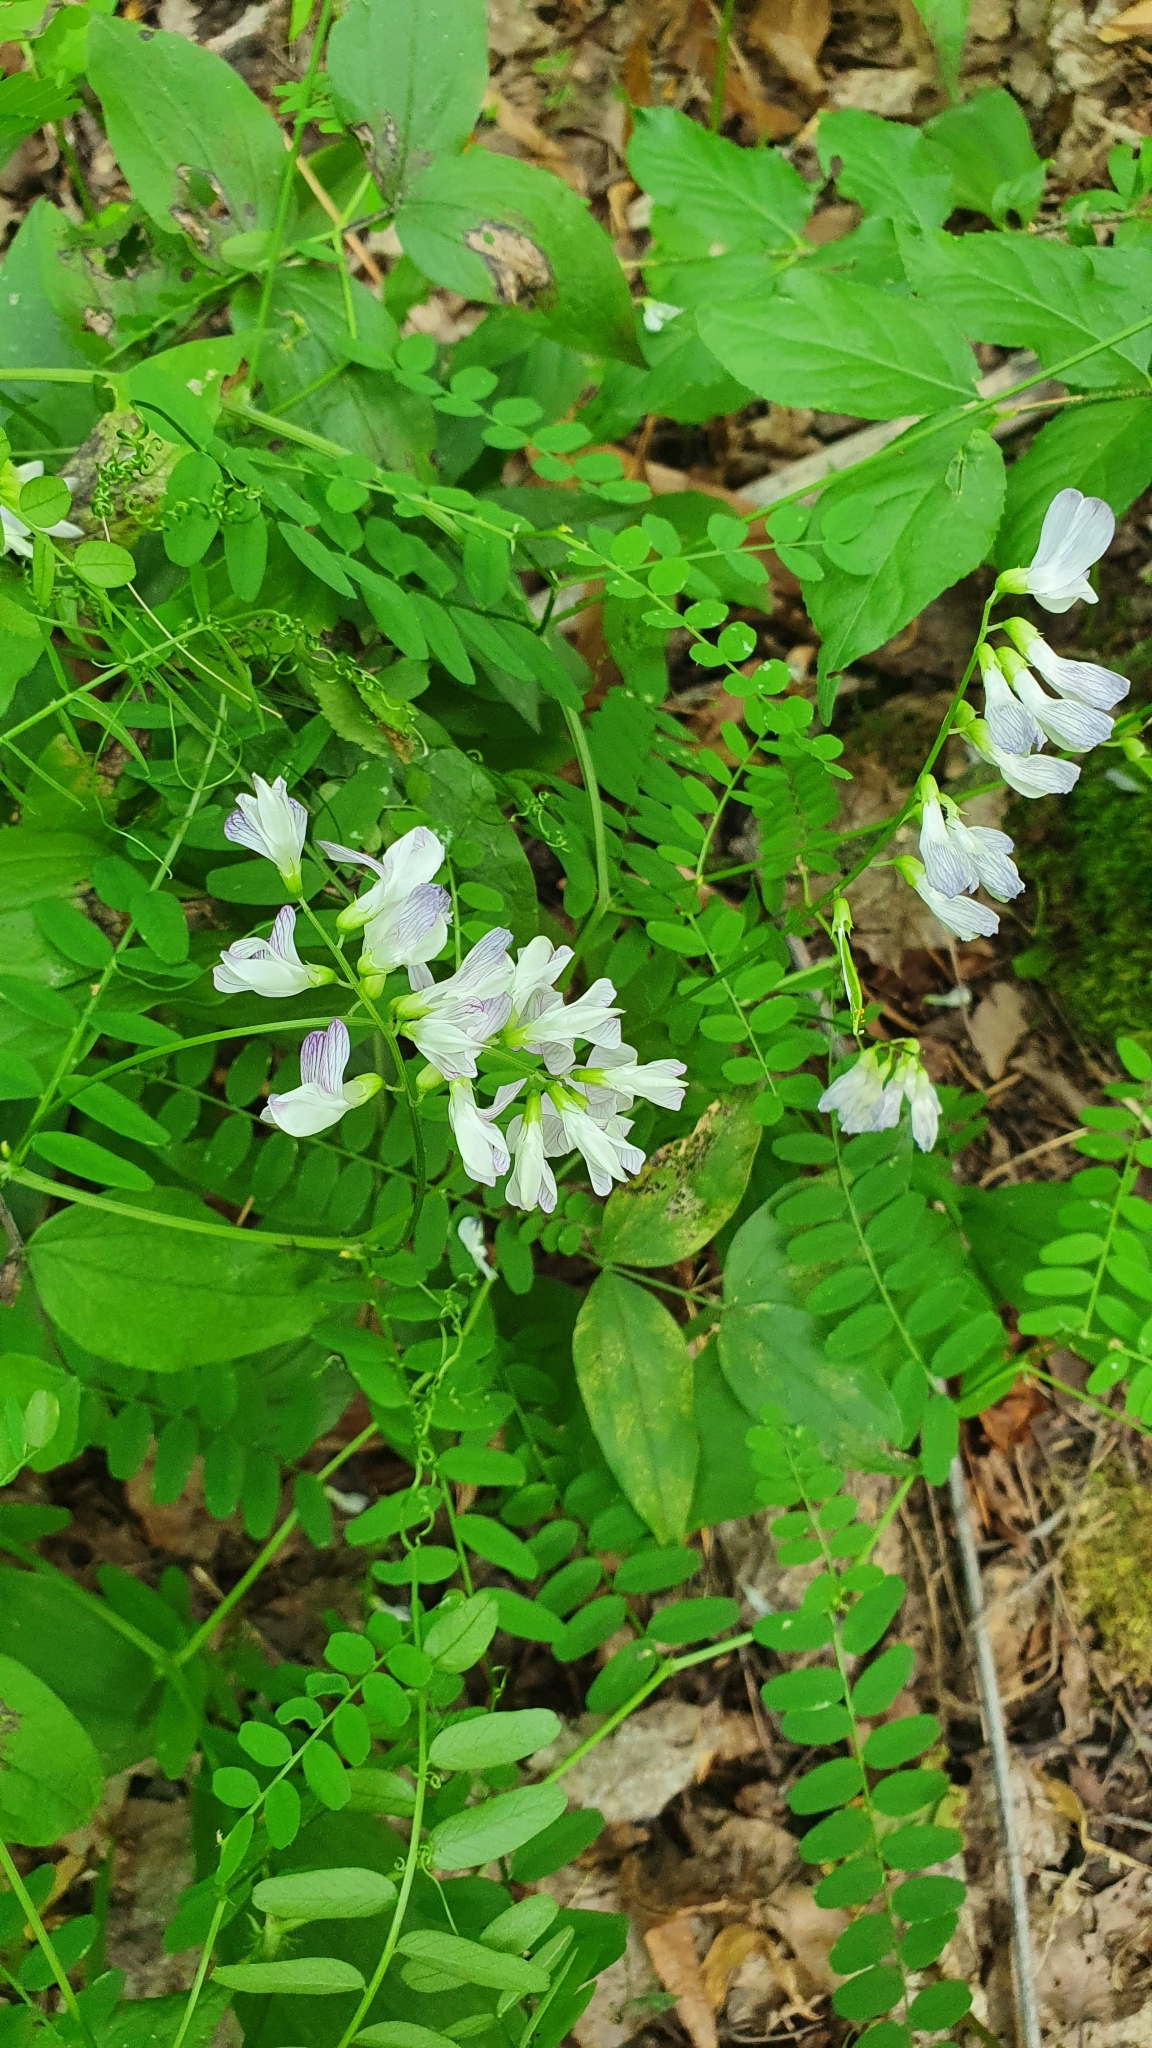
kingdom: Plantae
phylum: Tracheophyta
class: Magnoliopsida
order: Fabales
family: Fabaceae
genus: Vicia
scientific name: Vicia sylvatica
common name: Wood vetch
